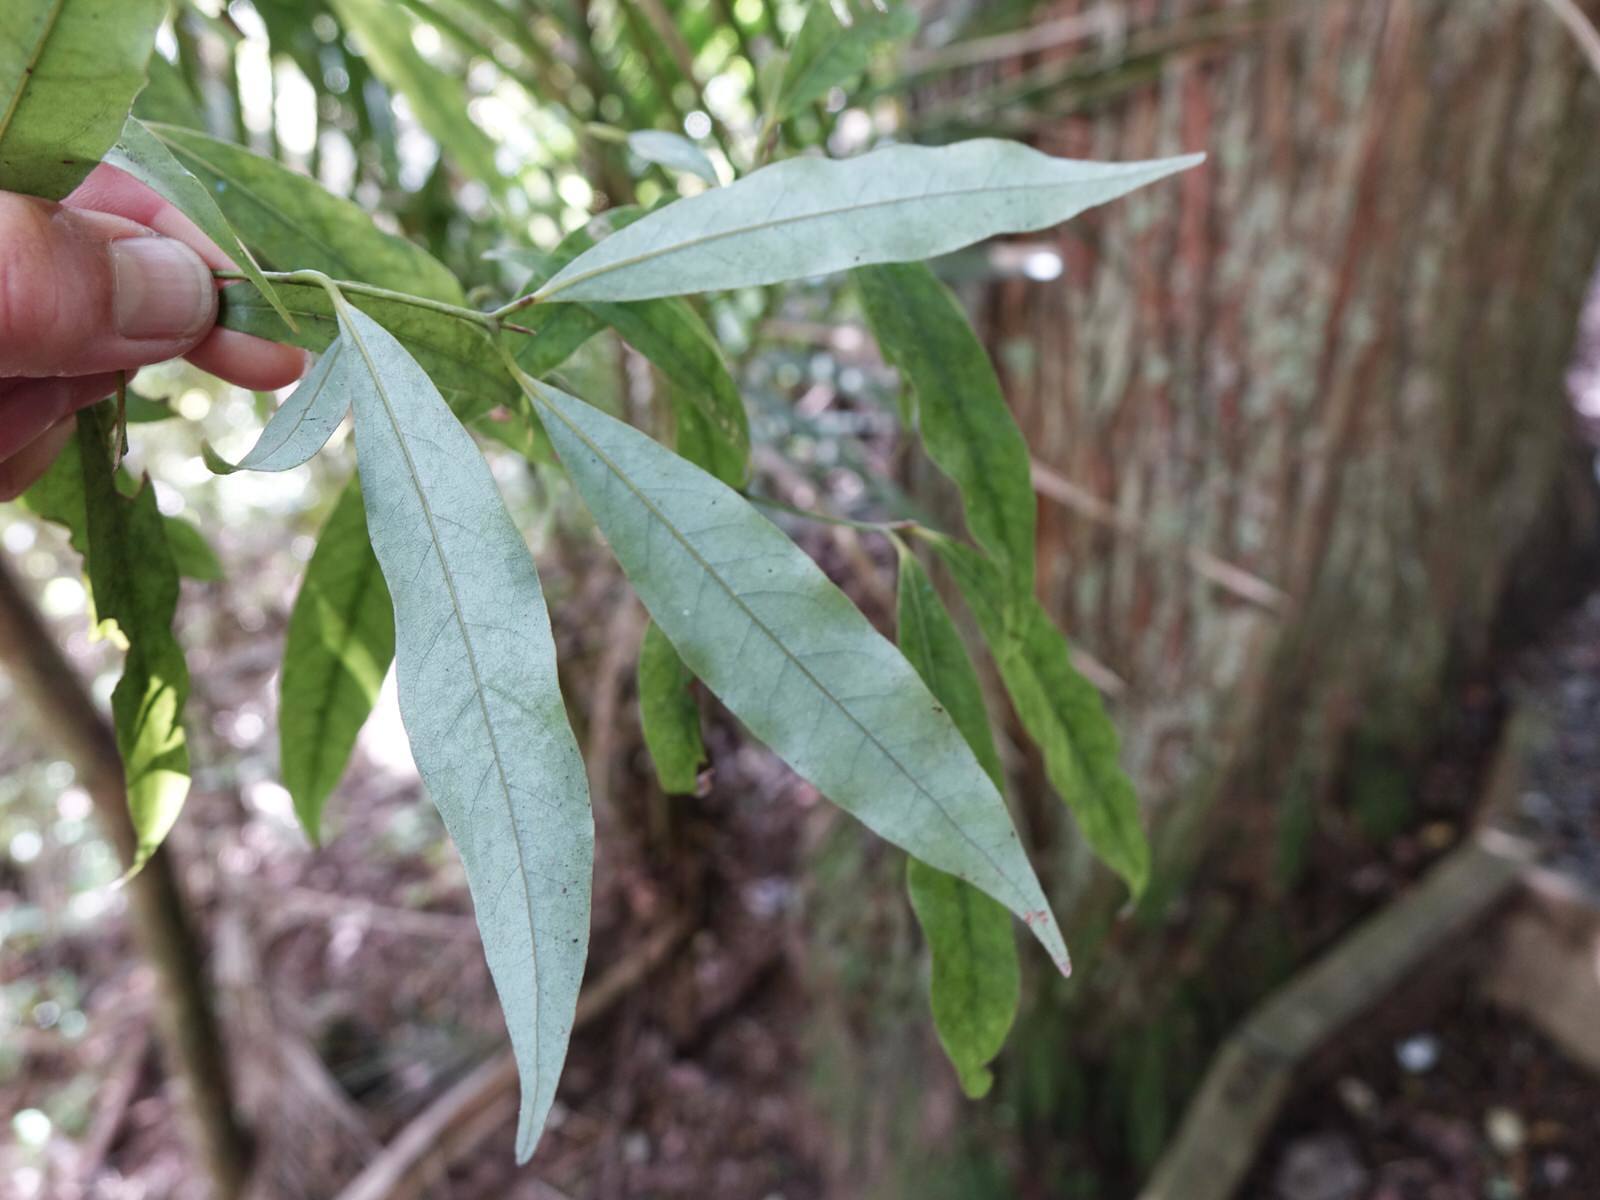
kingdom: Plantae
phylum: Tracheophyta
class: Magnoliopsida
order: Laurales
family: Lauraceae
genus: Beilschmiedia
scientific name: Beilschmiedia tawa
